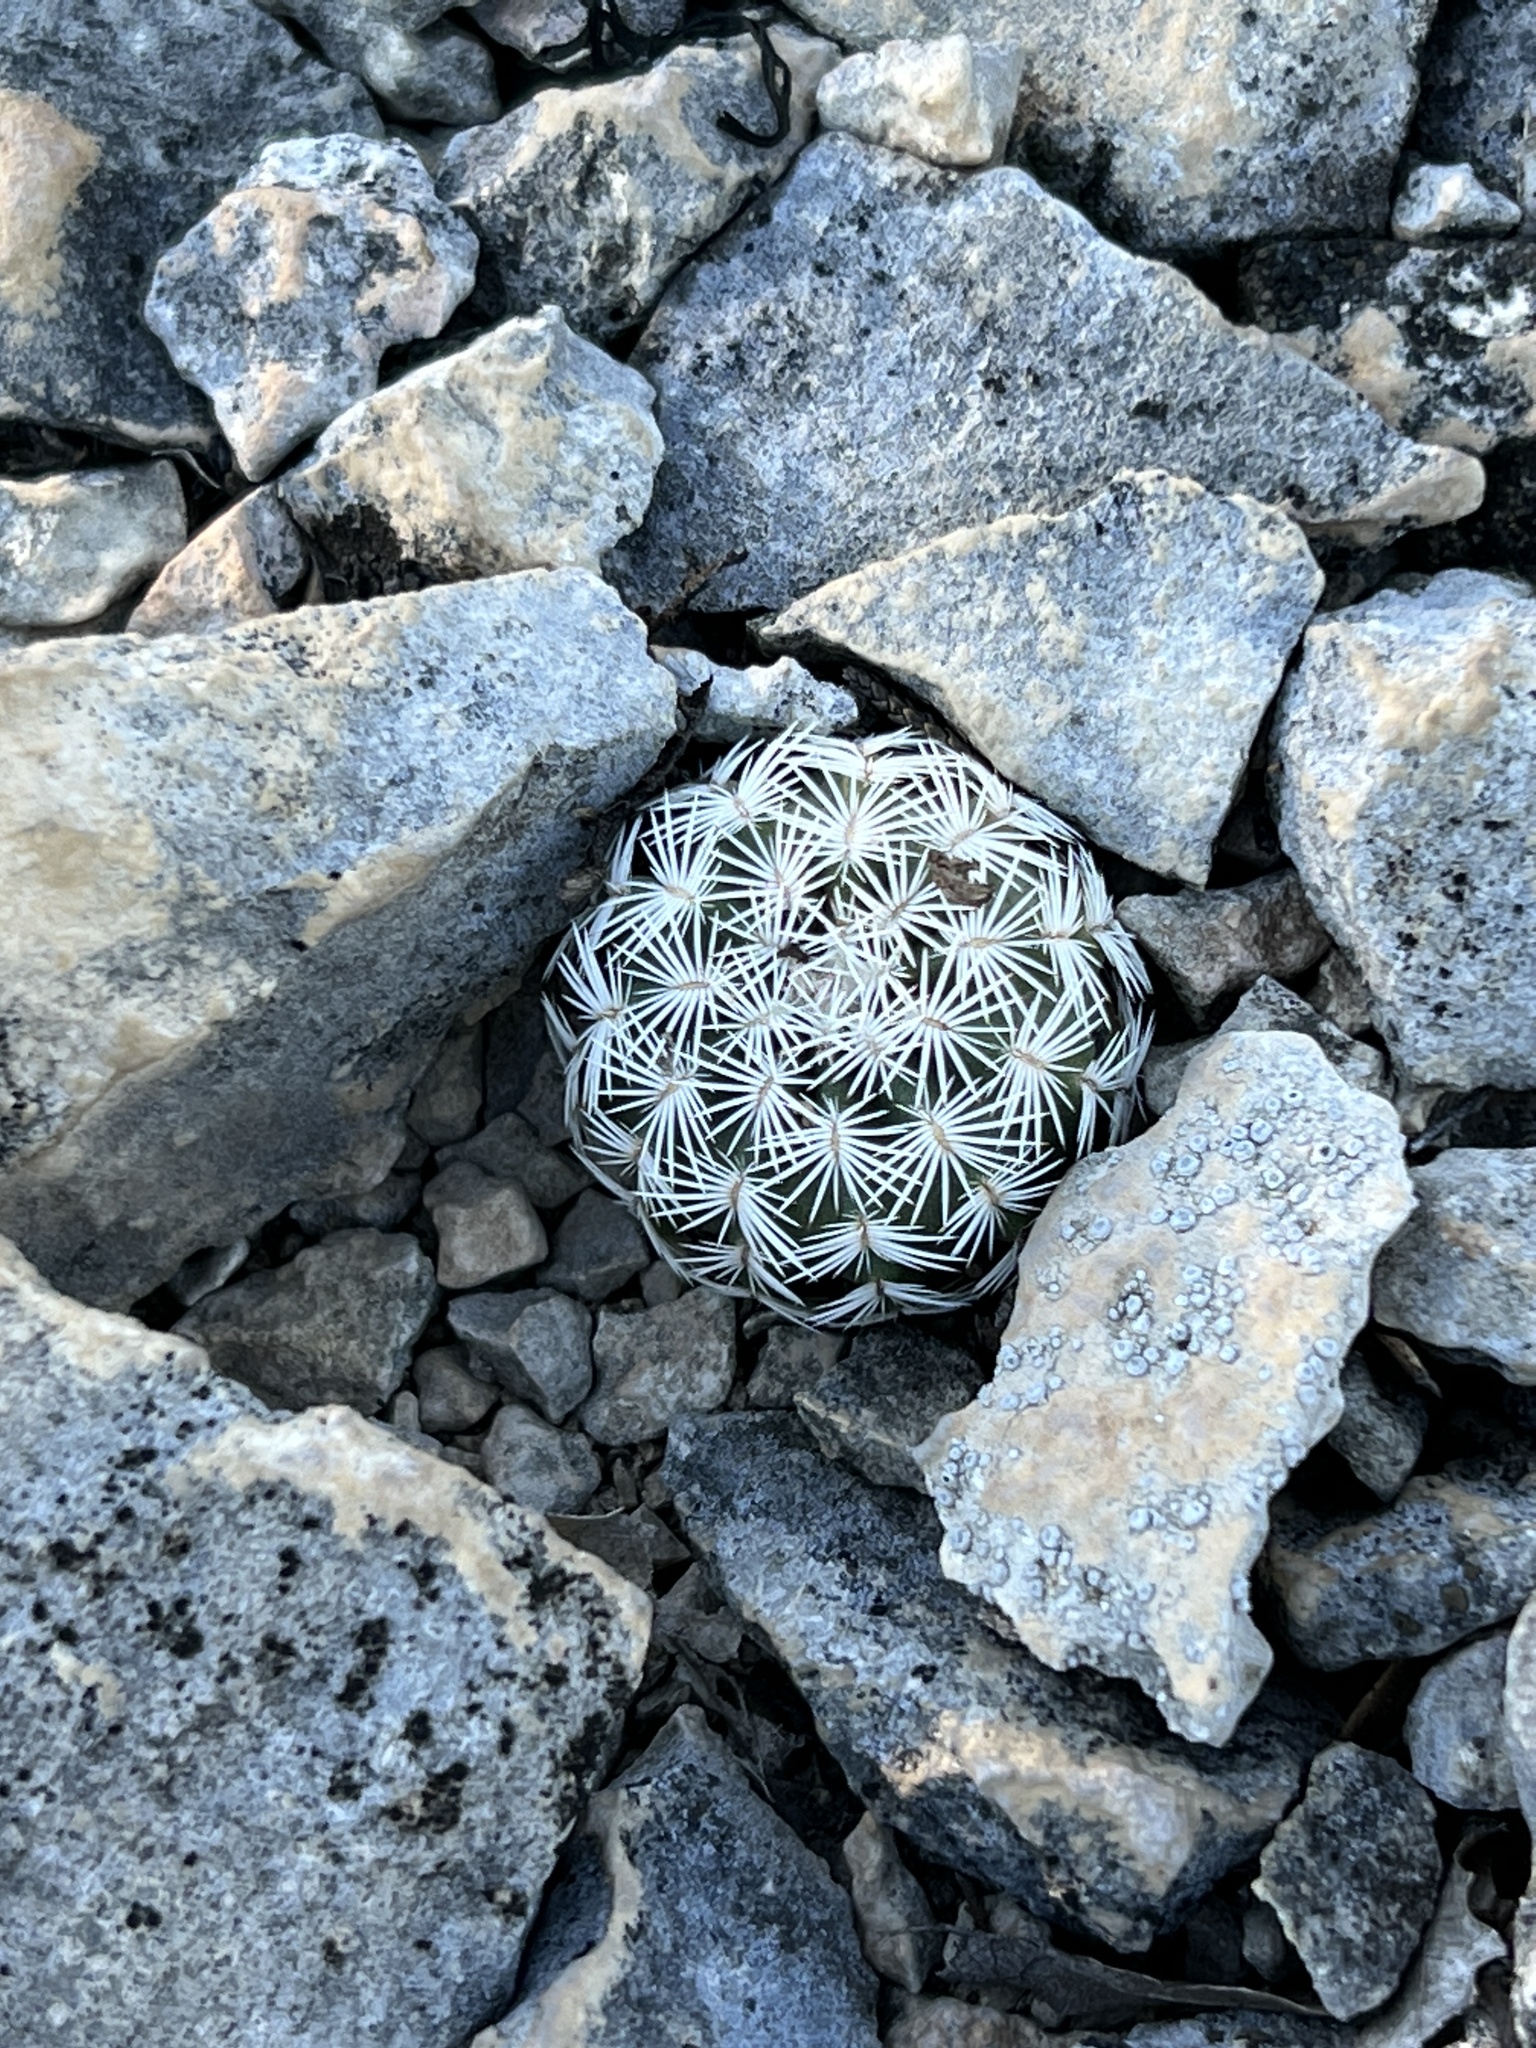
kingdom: Plantae
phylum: Tracheophyta
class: Magnoliopsida
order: Caryophyllales
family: Cactaceae
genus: Echinocereus
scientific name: Echinocereus reichenbachii
